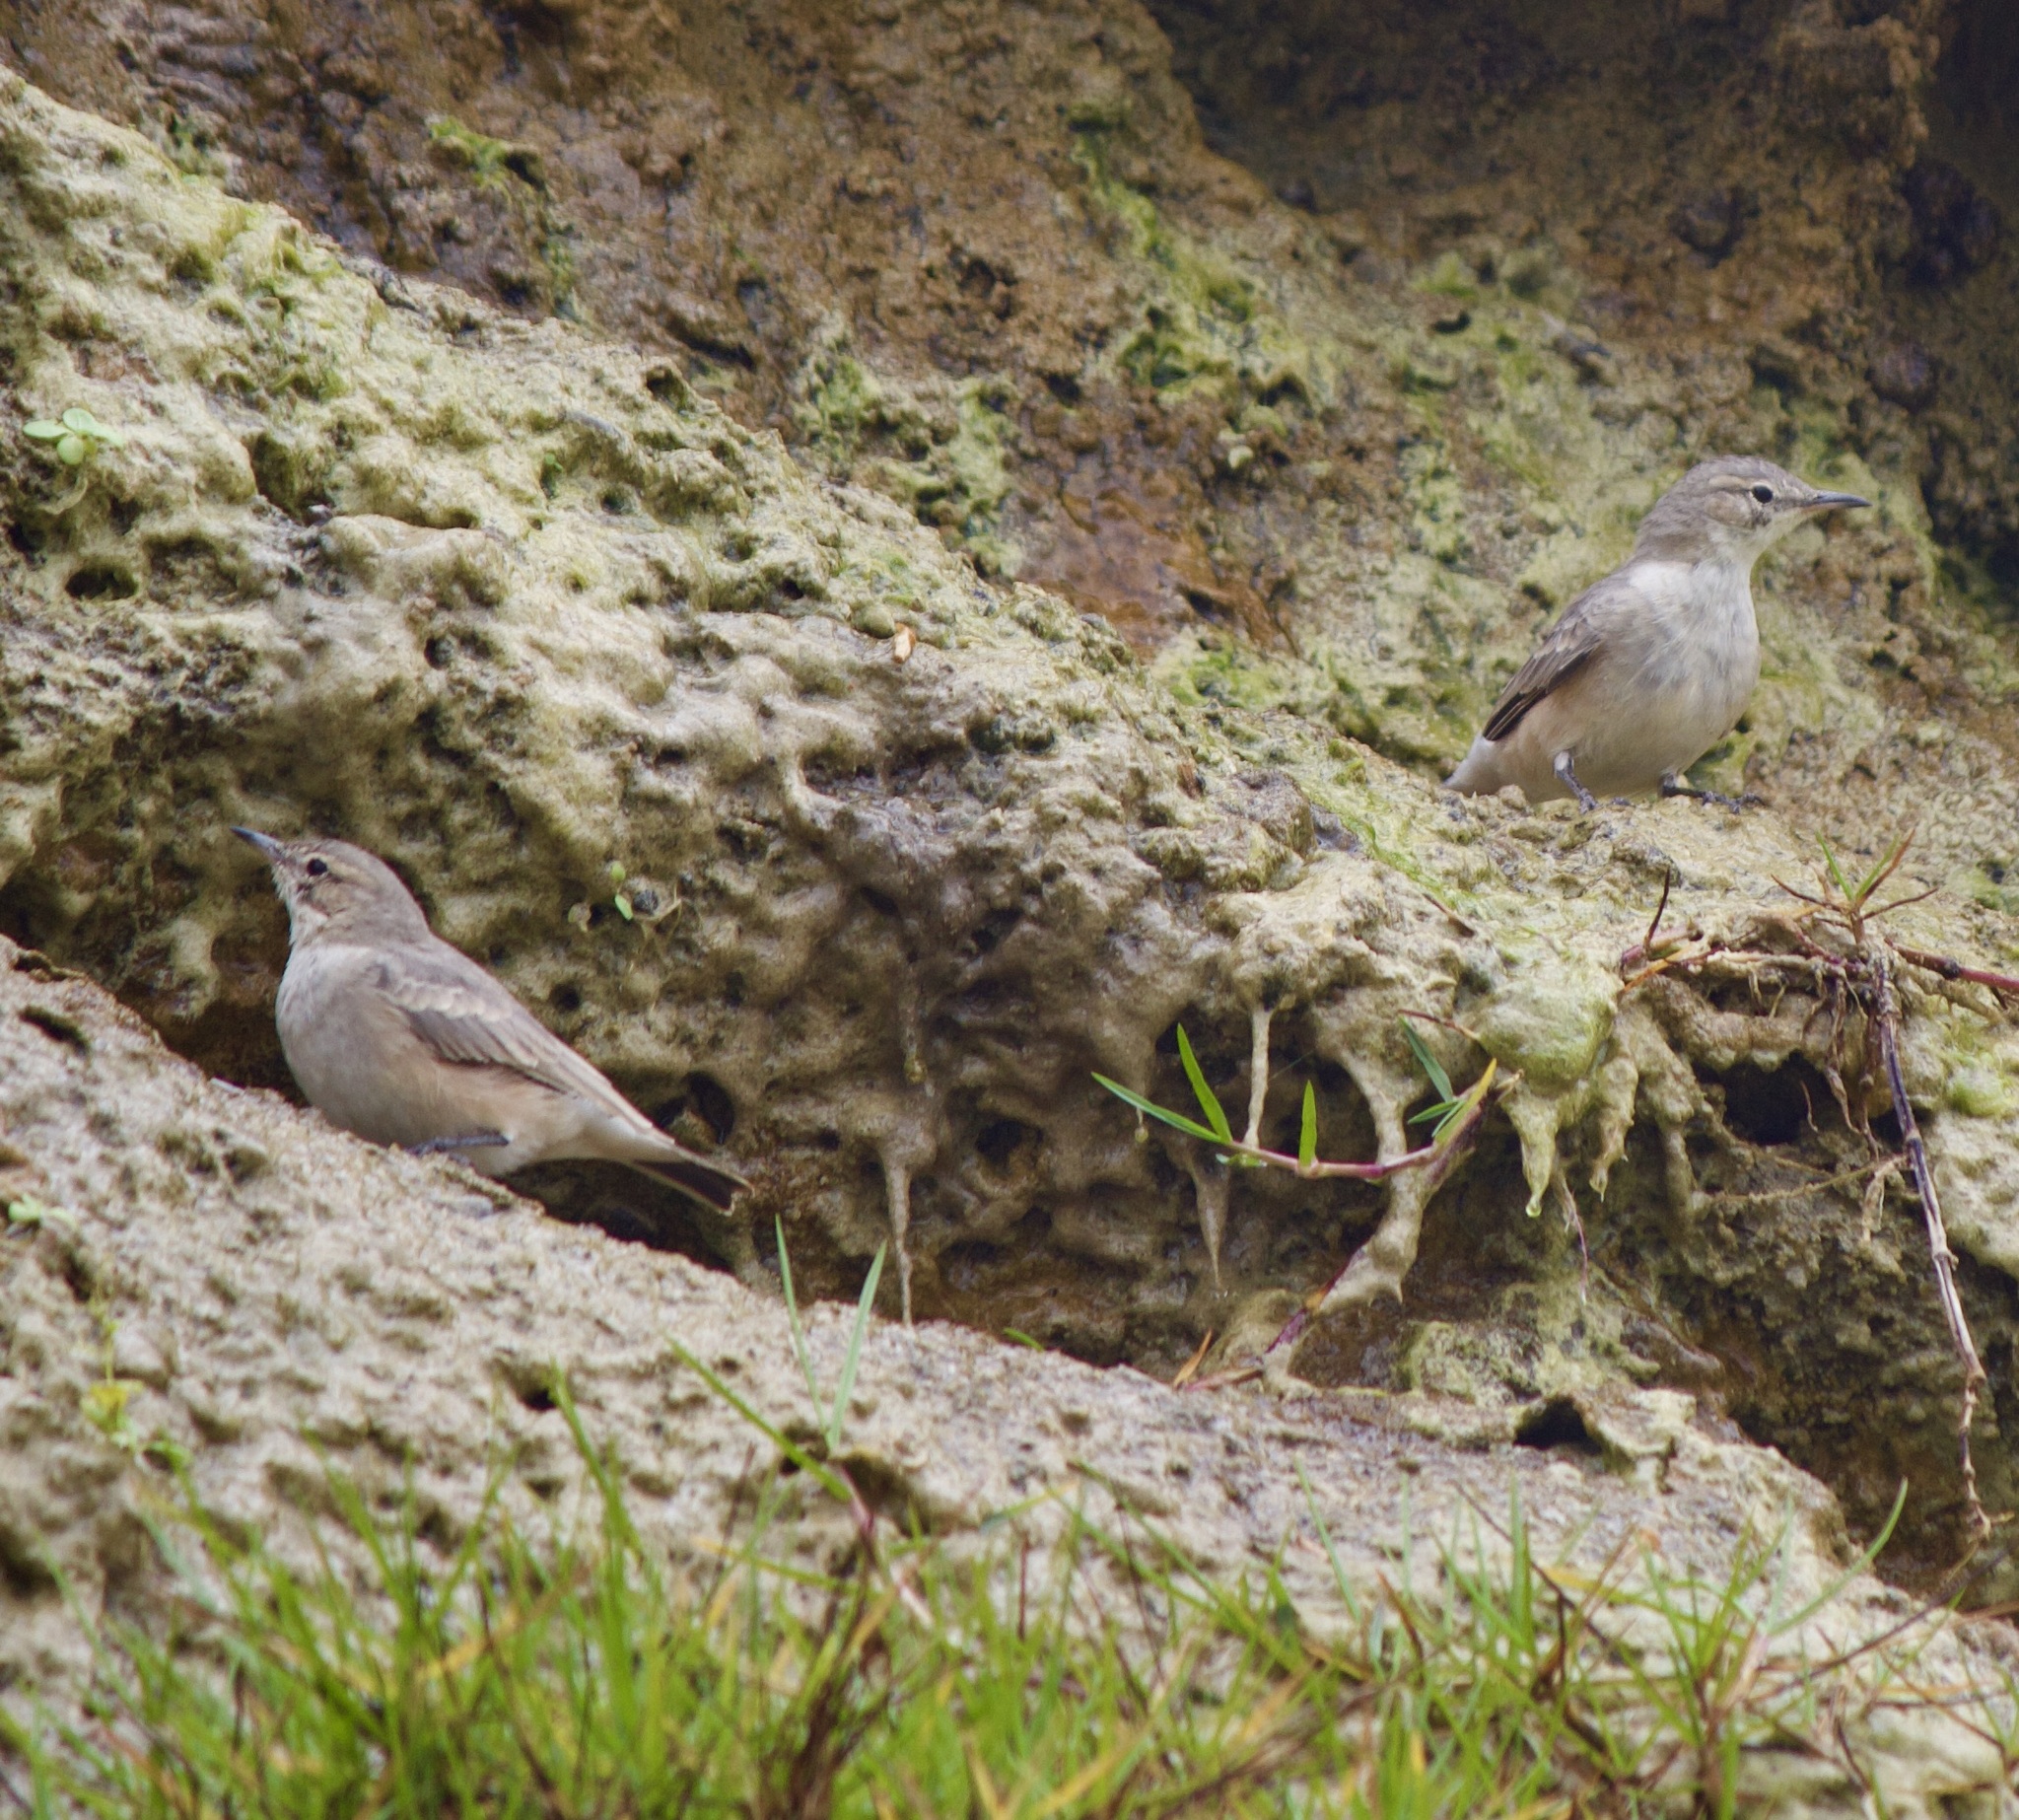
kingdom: Animalia
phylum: Chordata
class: Aves
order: Passeriformes
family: Furnariidae
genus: Geositta
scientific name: Geositta maritima
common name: Greyish miner
